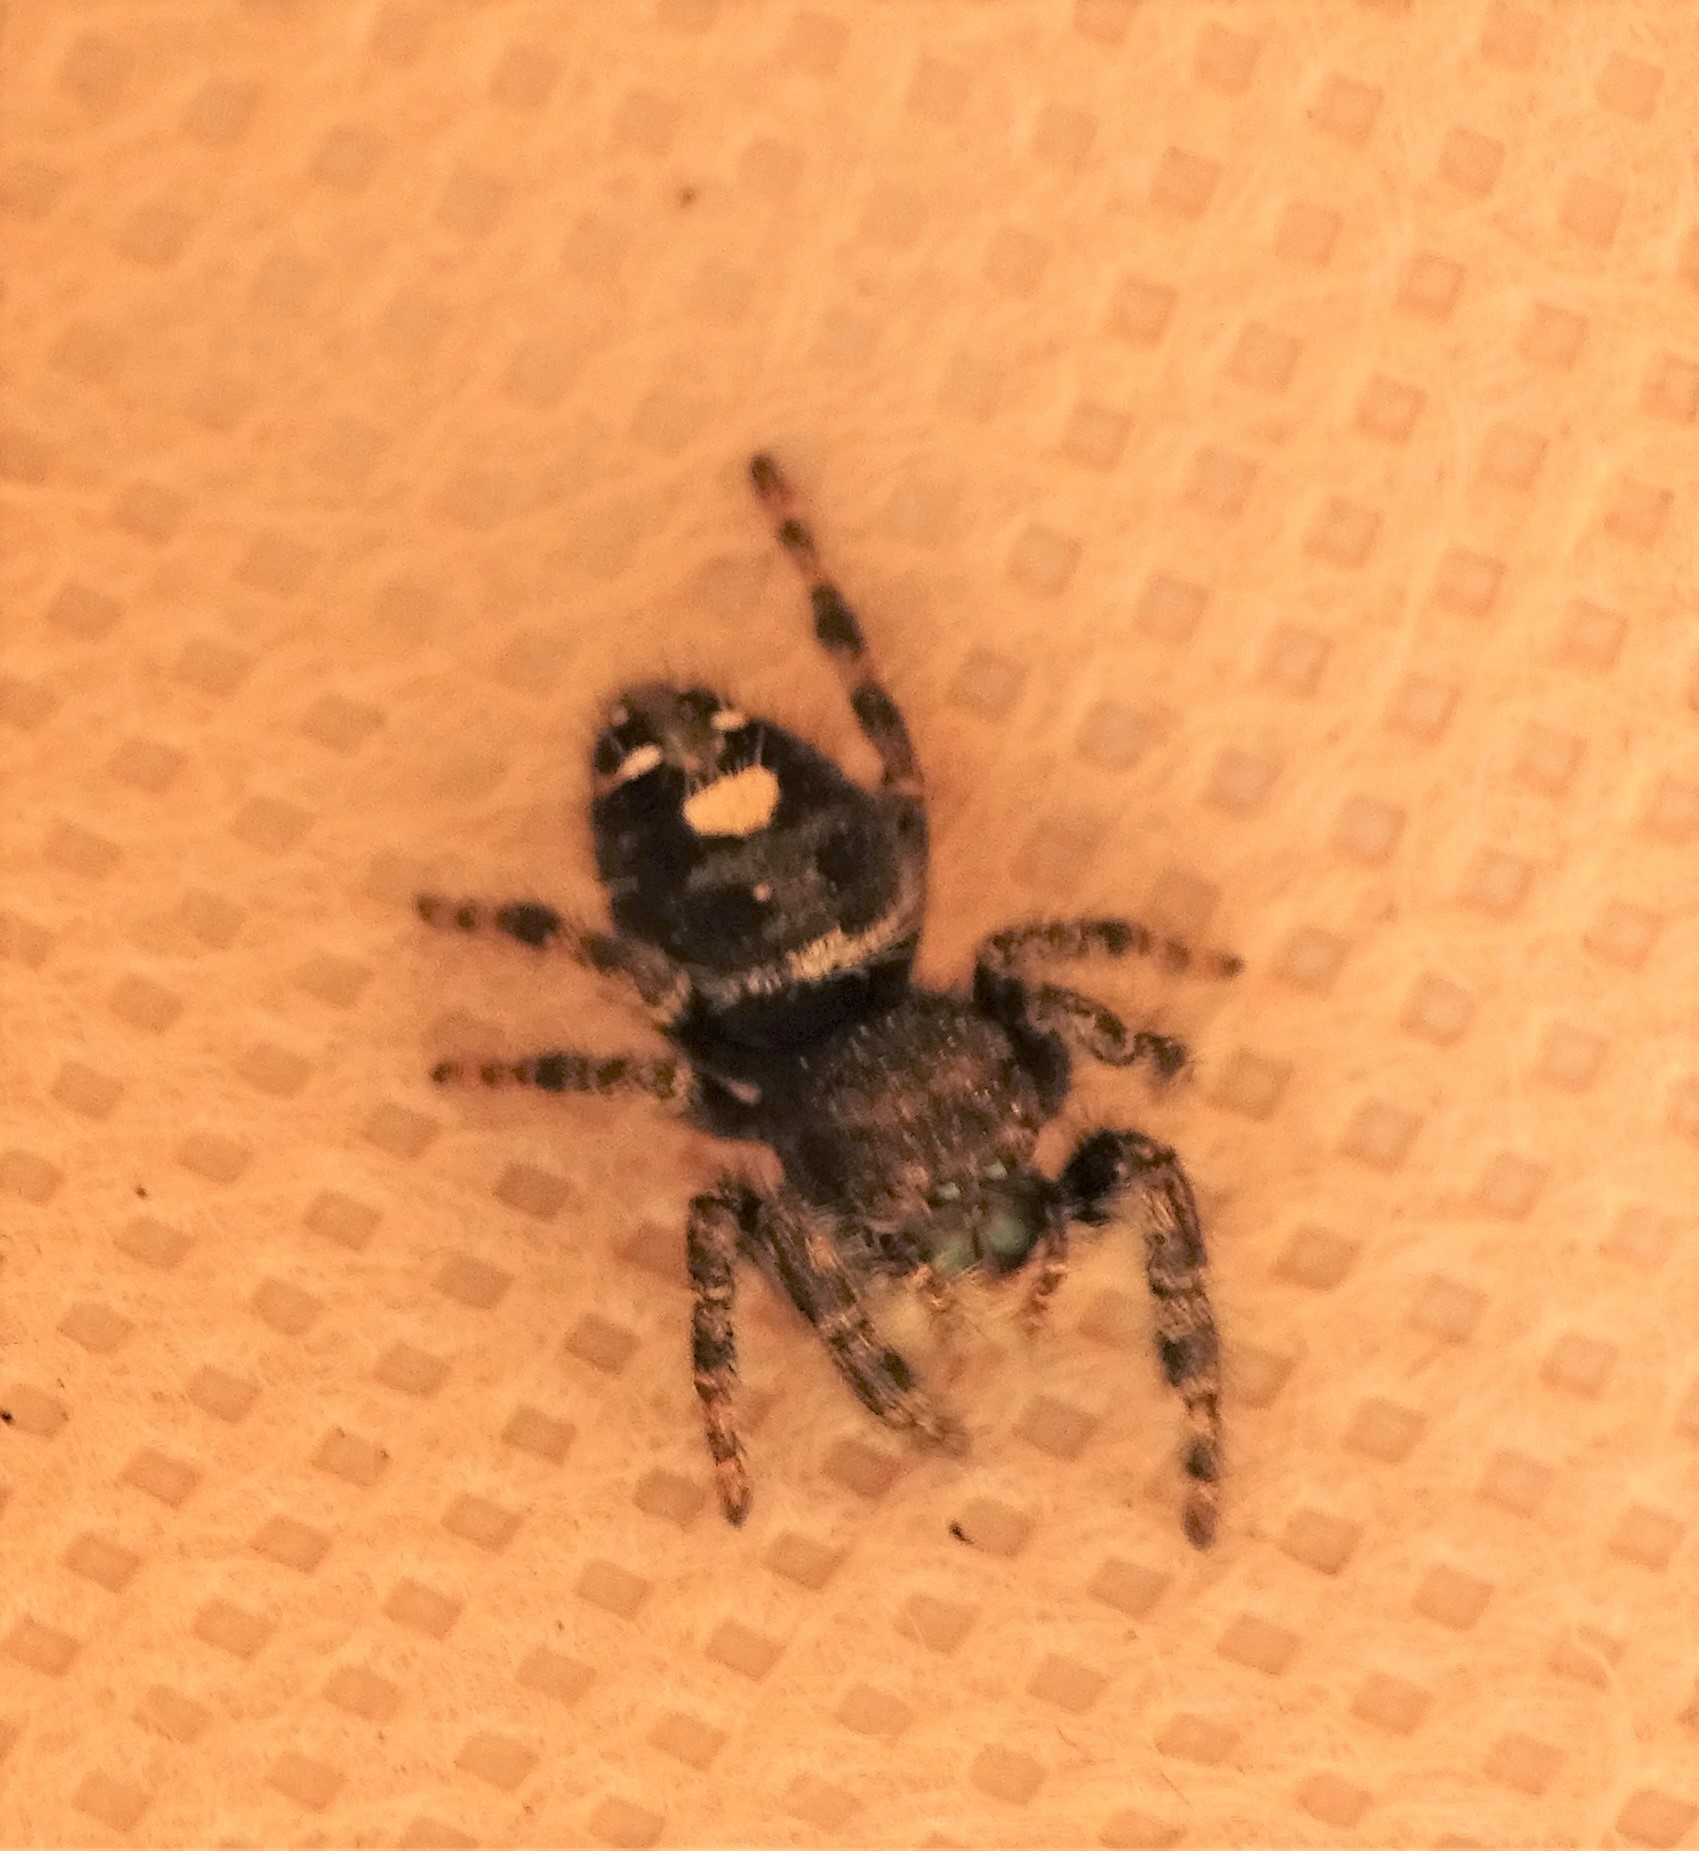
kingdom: Animalia
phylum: Arthropoda
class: Arachnida
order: Araneae
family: Salticidae
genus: Phidippus
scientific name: Phidippus audax
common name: Bold jumper
